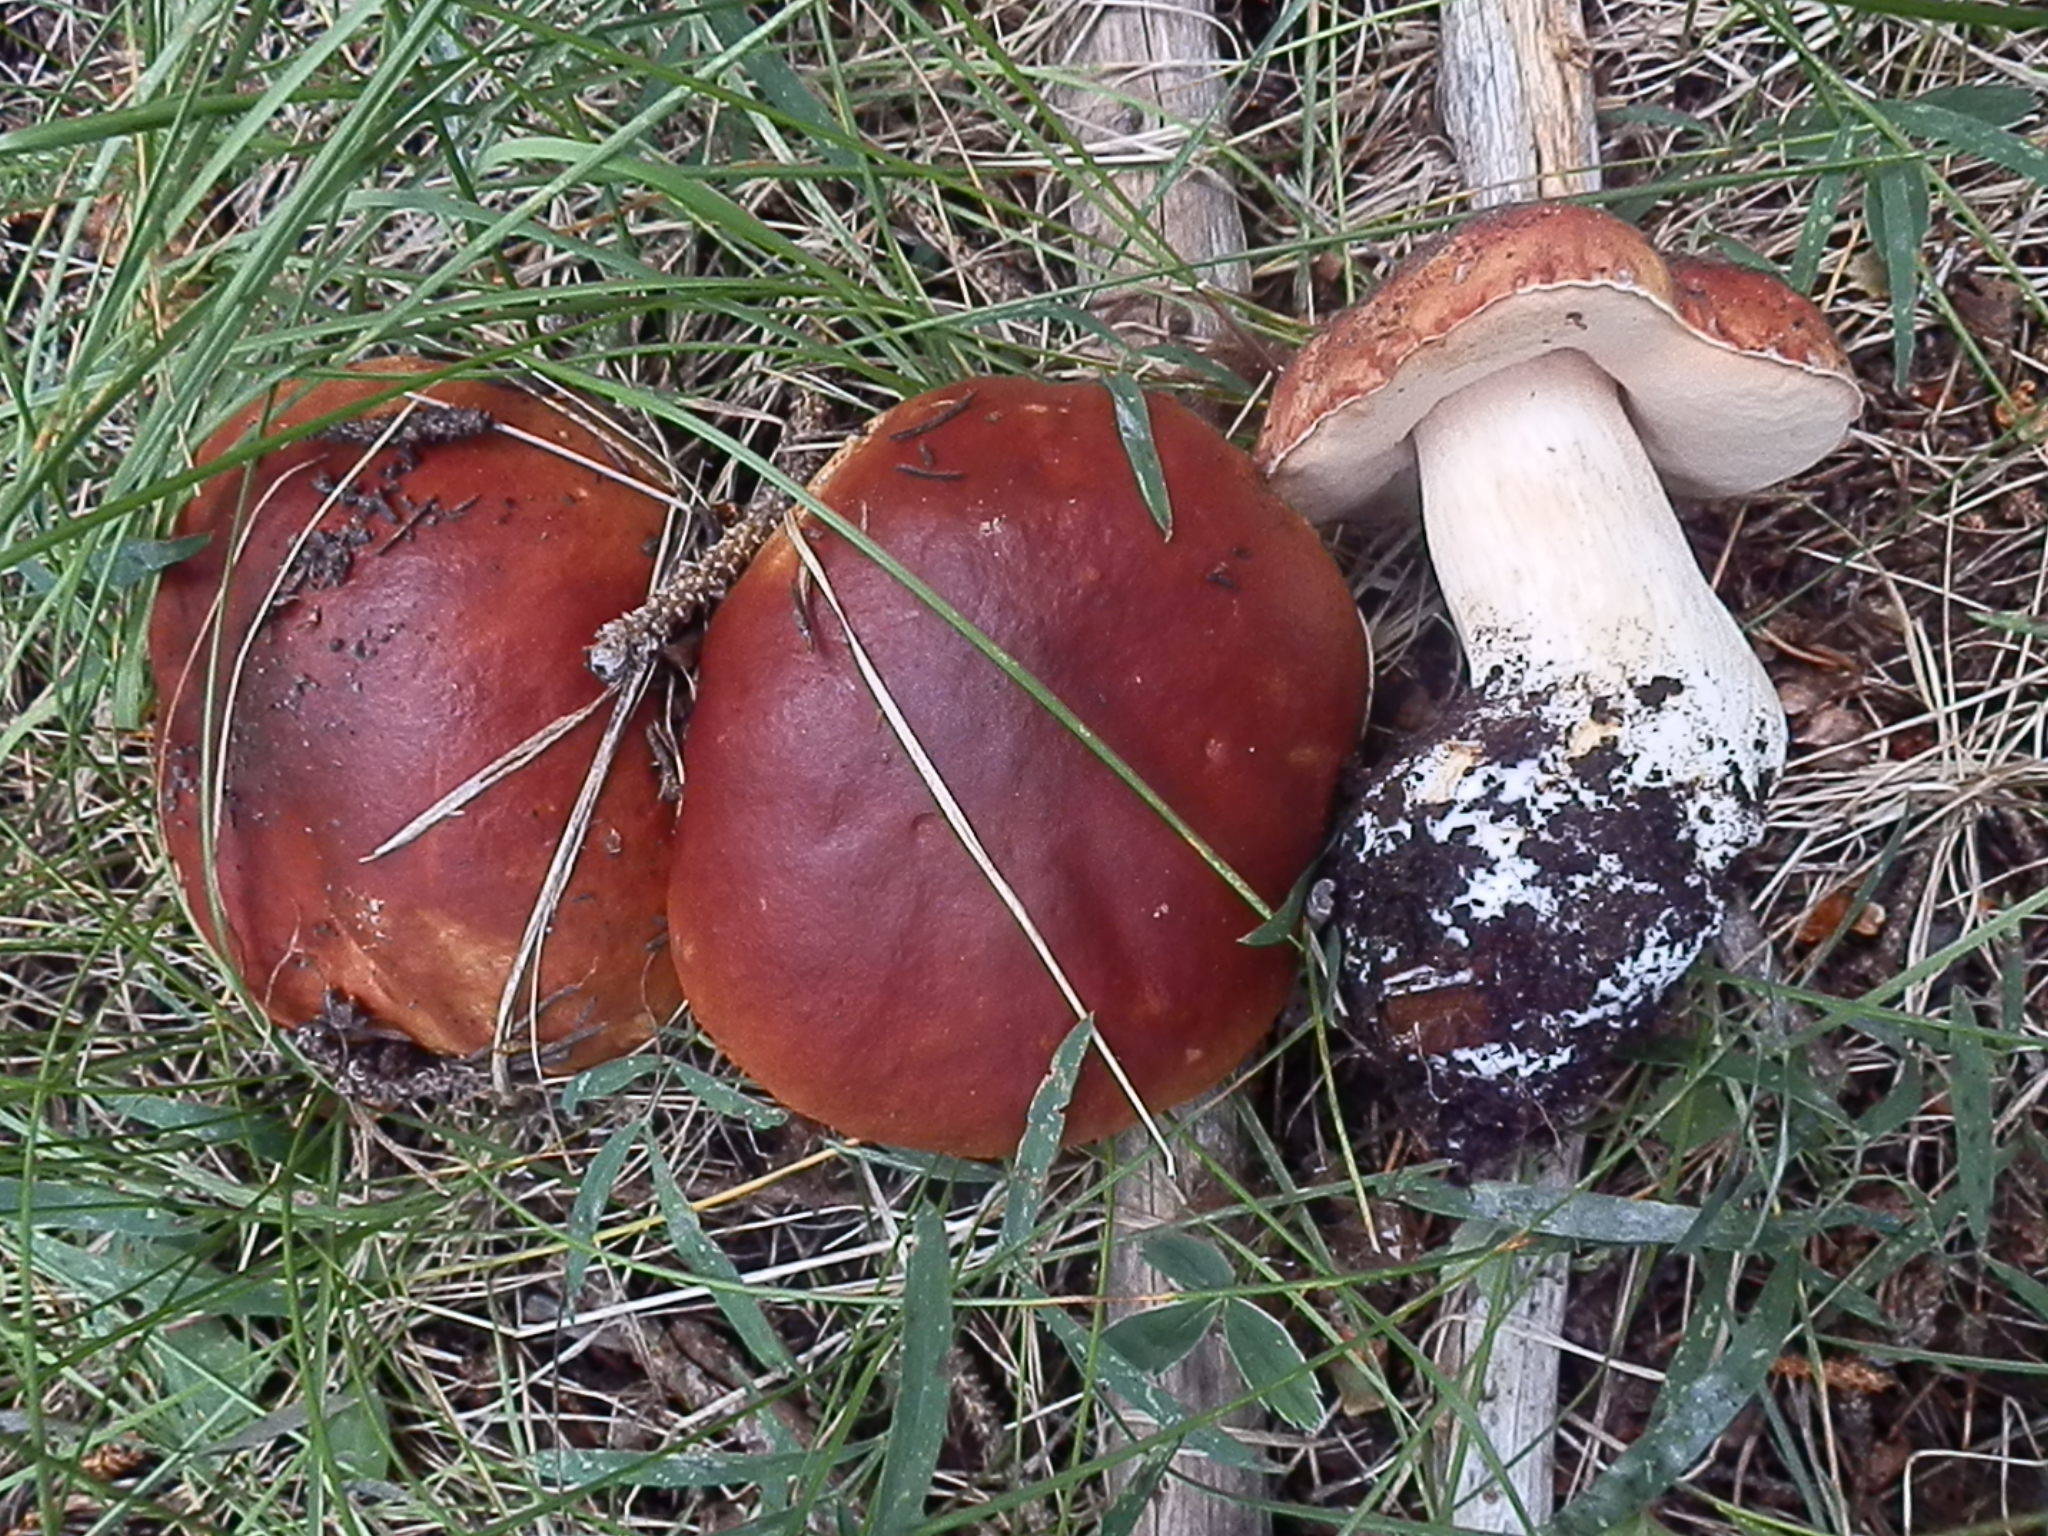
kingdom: Fungi
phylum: Basidiomycota
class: Agaricomycetes
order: Boletales
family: Boletaceae
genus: Boletus
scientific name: Boletus rubriceps
